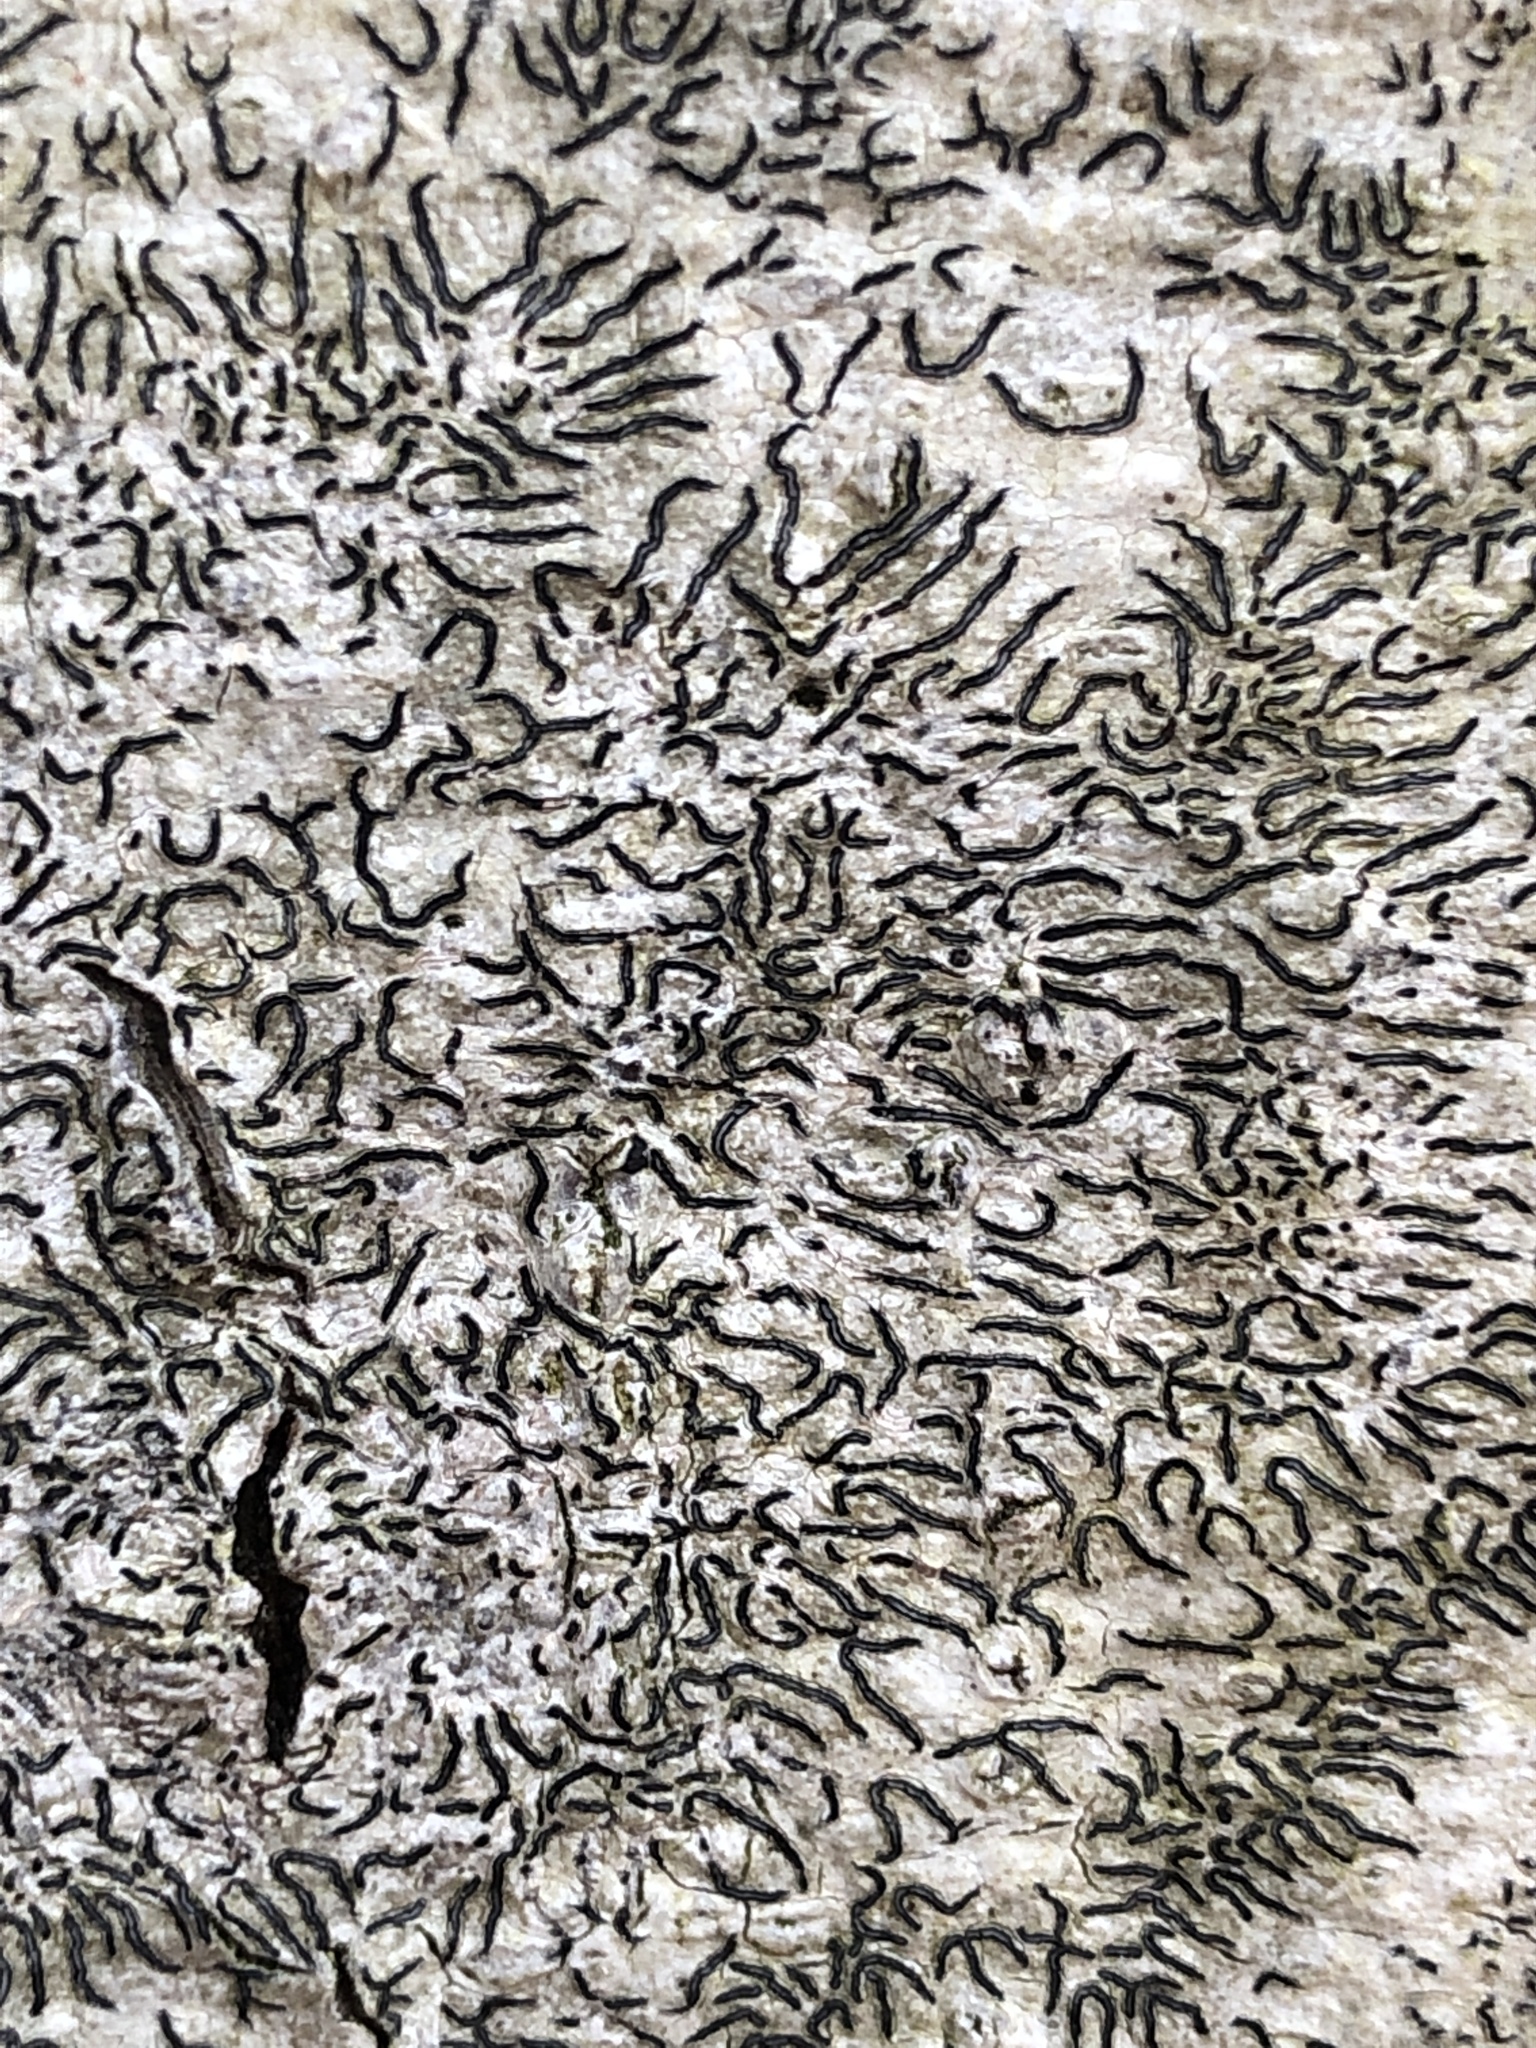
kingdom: Fungi
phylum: Ascomycota
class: Lecanoromycetes
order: Ostropales
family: Graphidaceae
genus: Graphis
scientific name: Graphis scripta
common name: Script lichen
